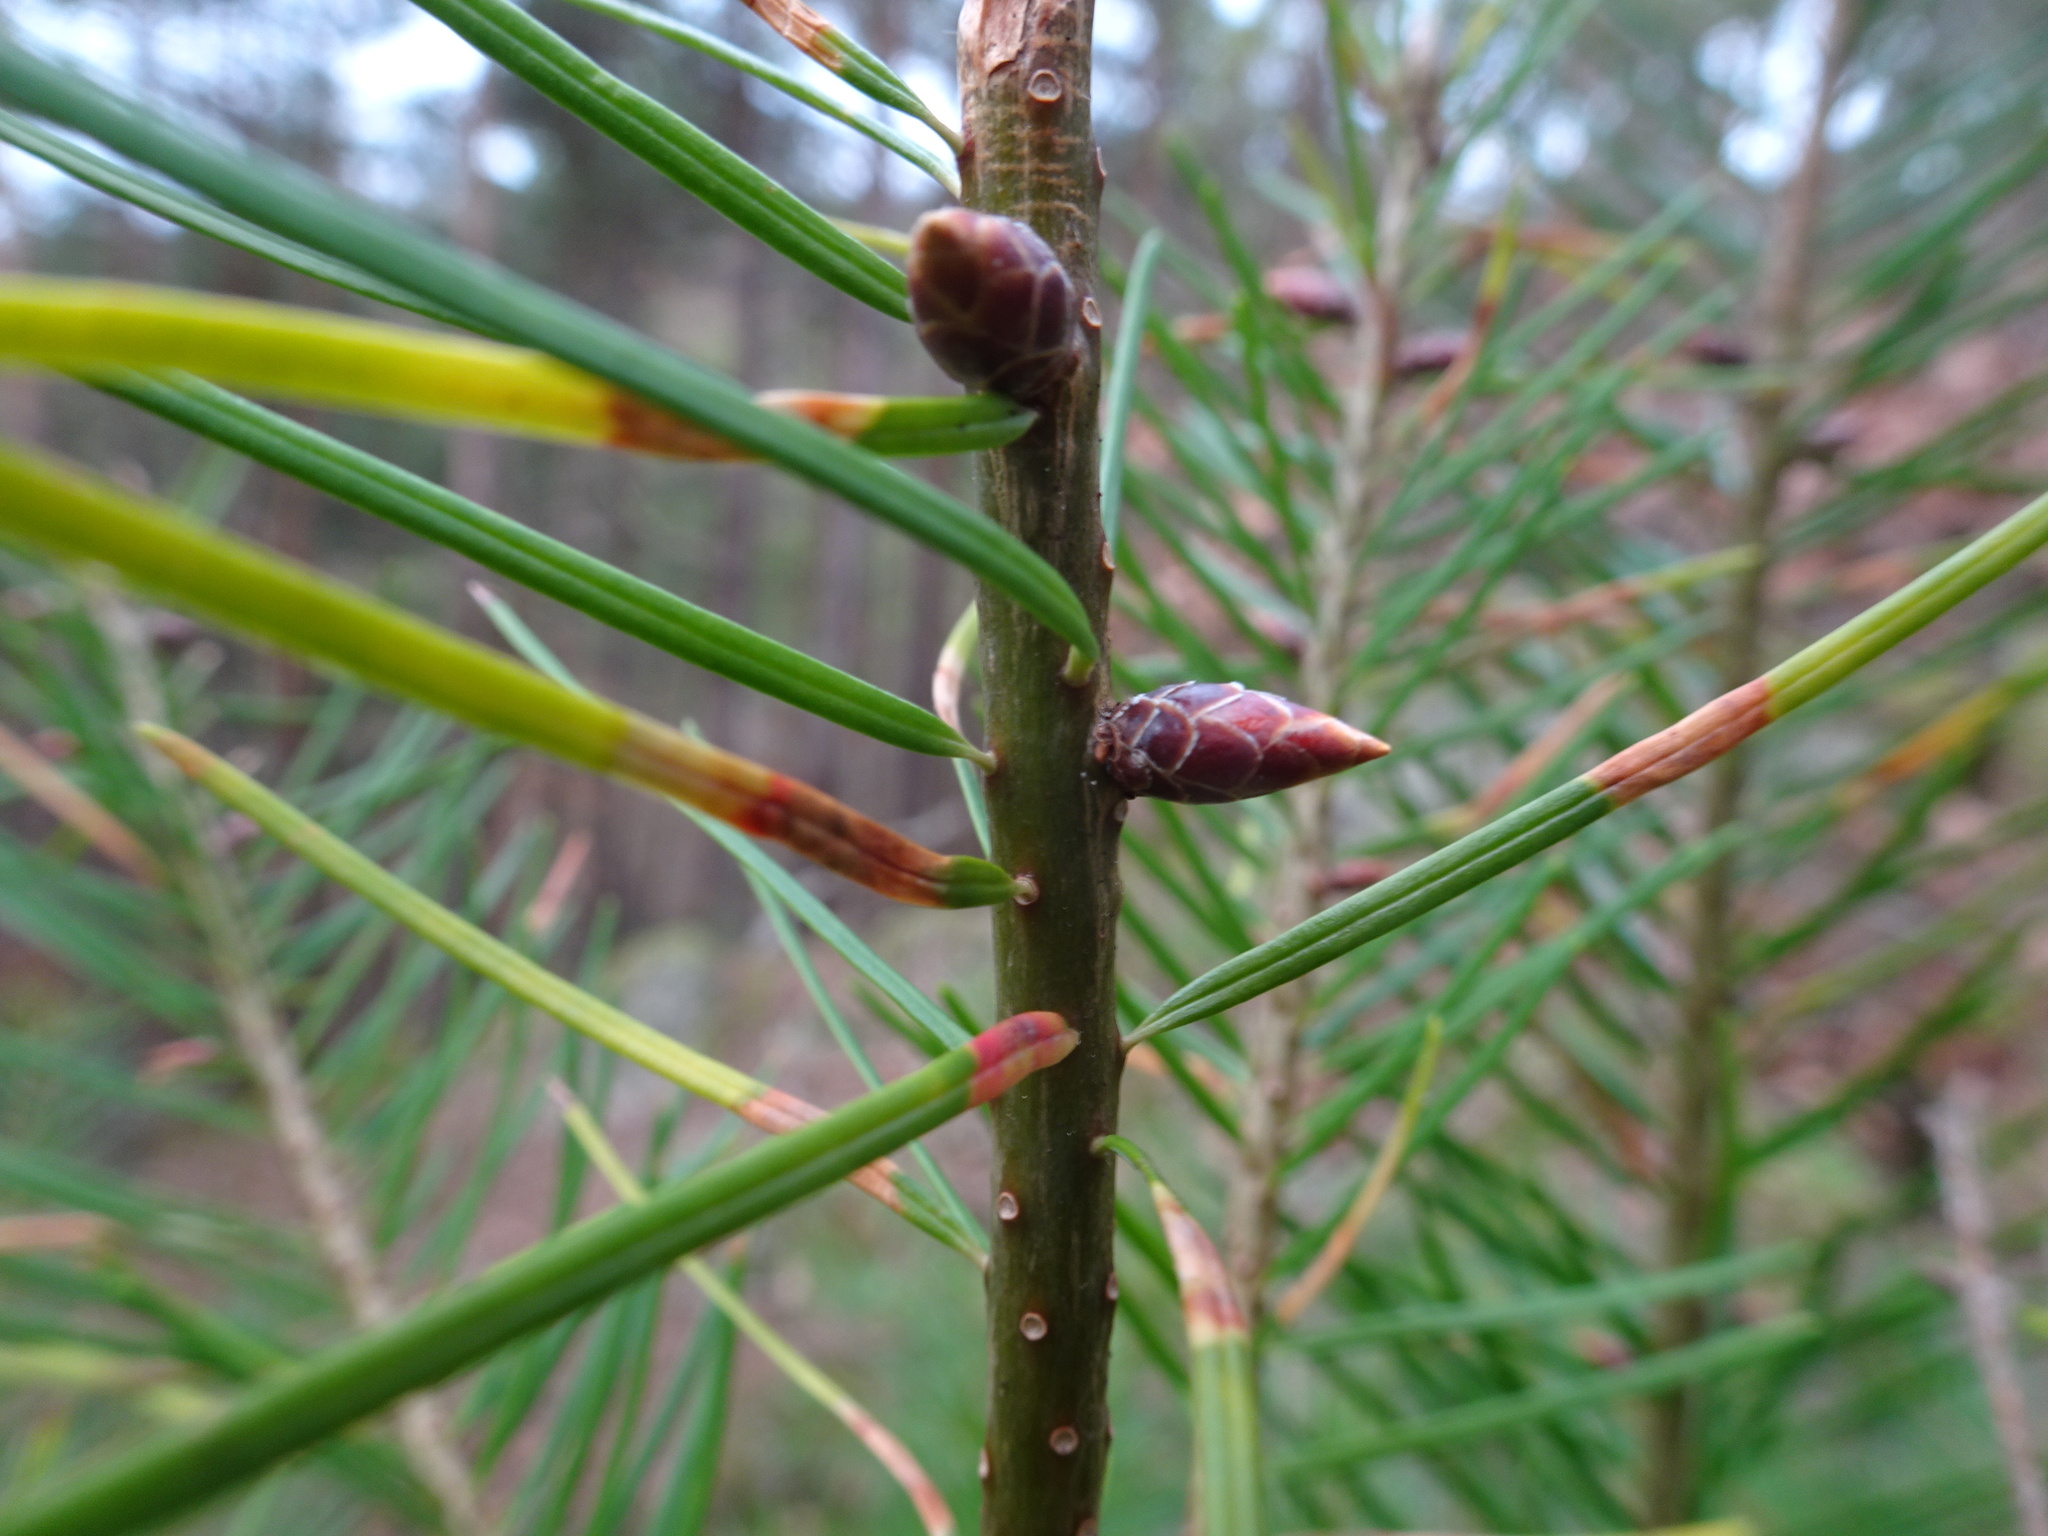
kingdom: Animalia
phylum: Arthropoda
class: Insecta
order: Diptera
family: Cecidomyiidae
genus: Contarinia
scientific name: Contarinia pseudotsugae
